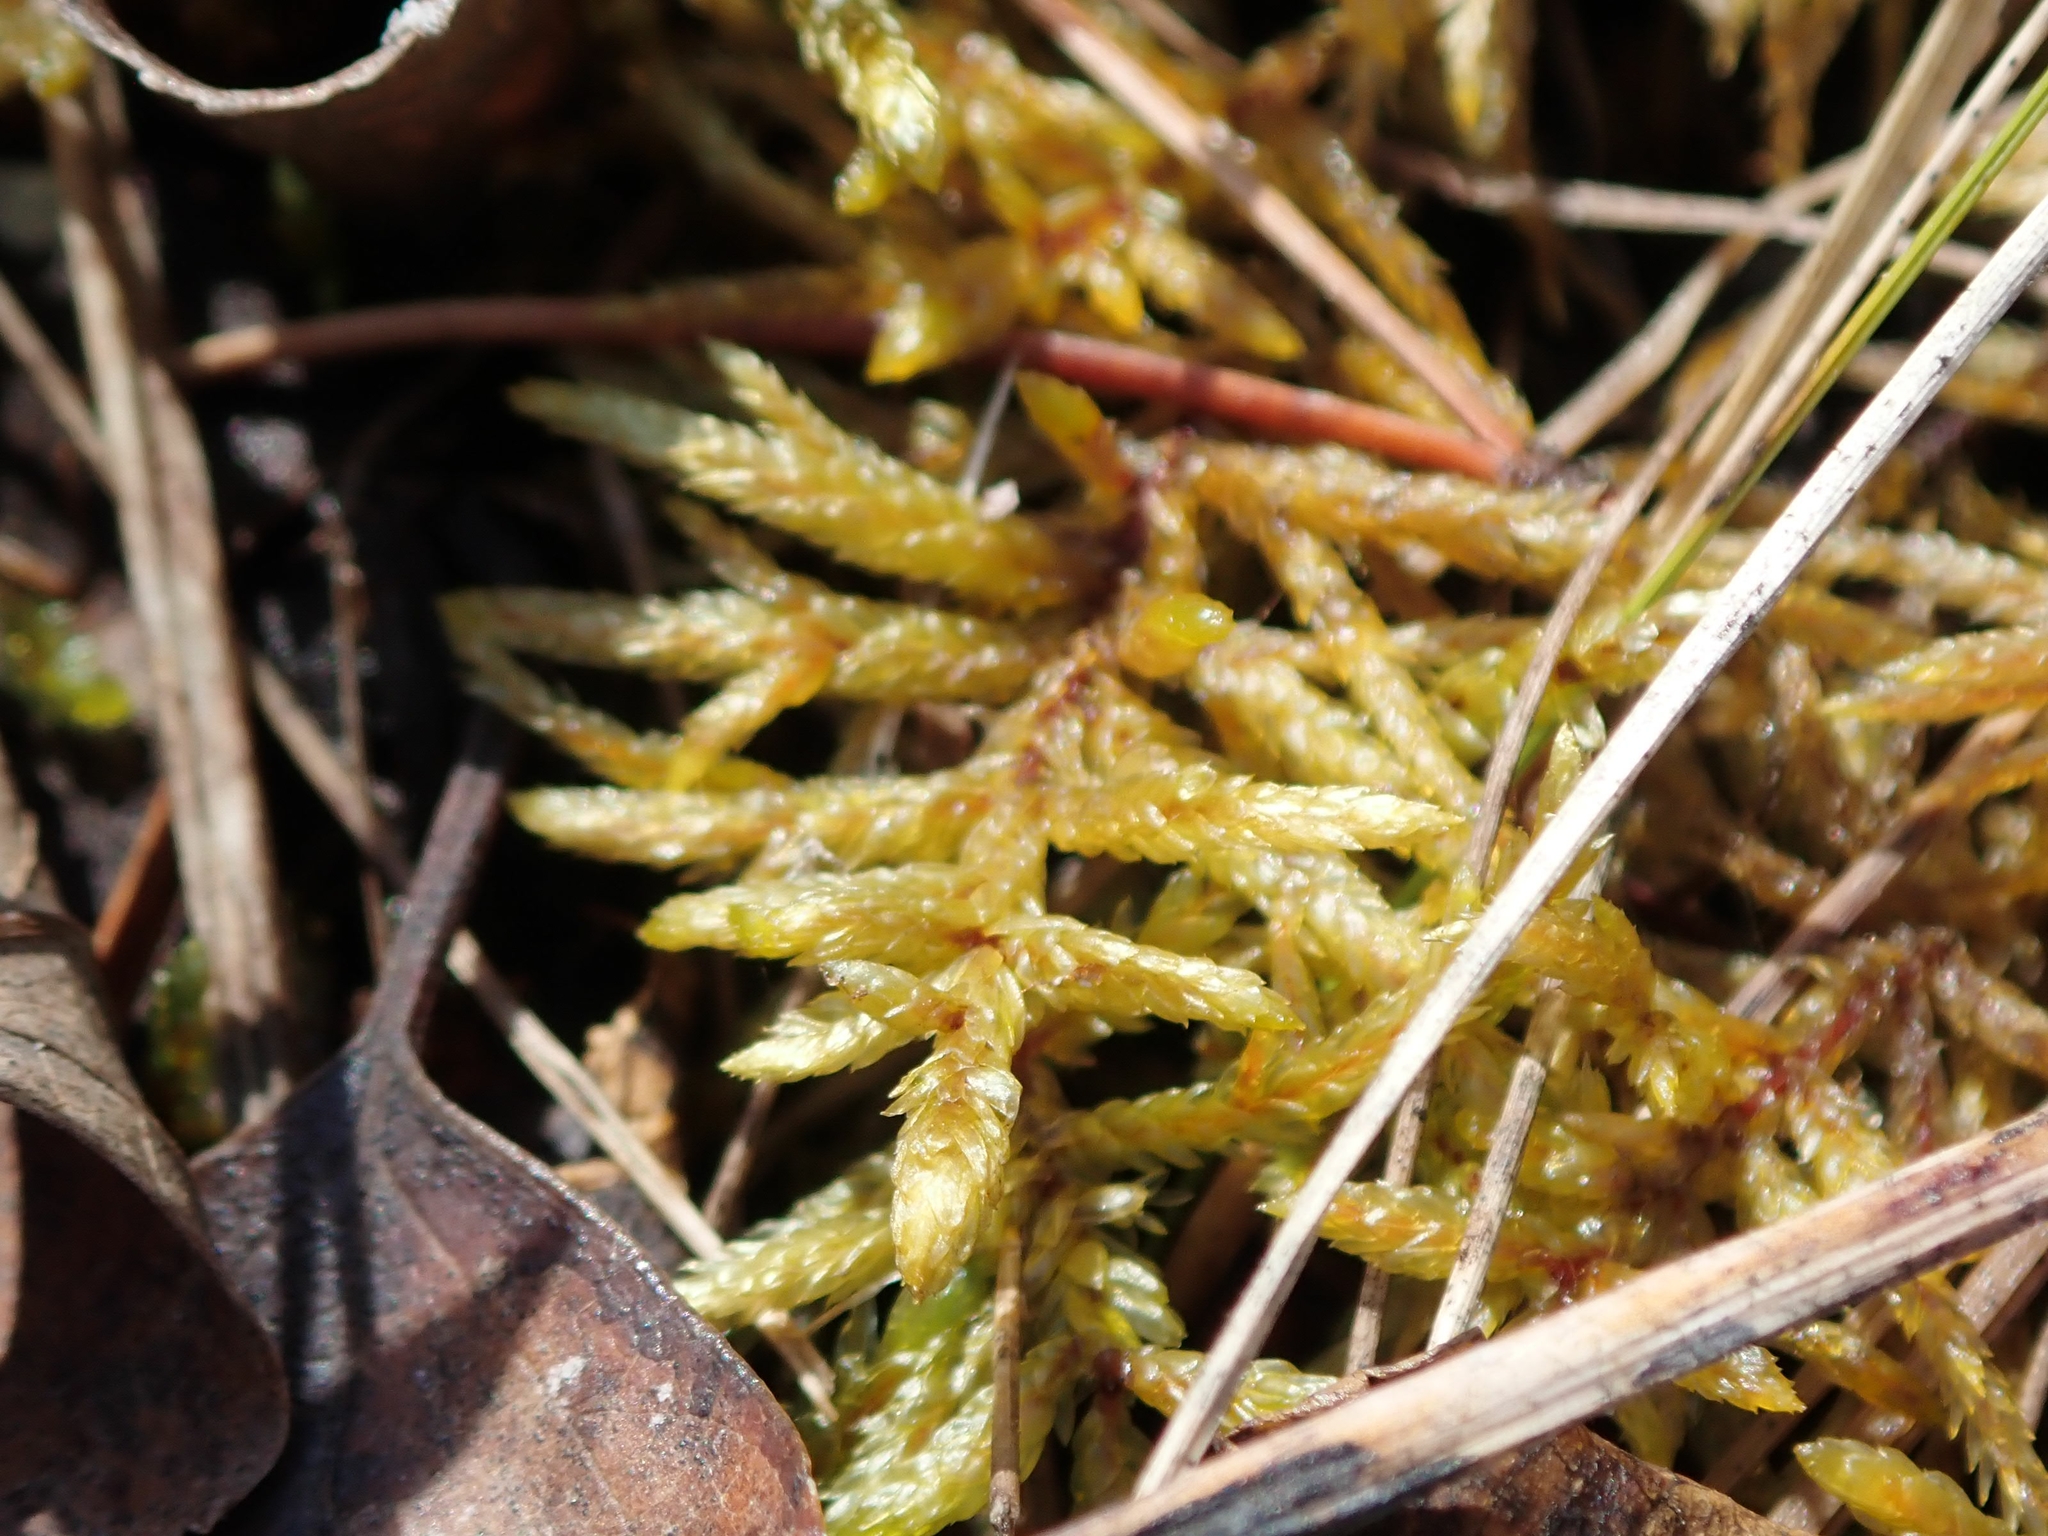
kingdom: Plantae
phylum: Bryophyta
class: Bryopsida
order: Hypnales
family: Hylocomiaceae
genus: Pleurozium
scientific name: Pleurozium schreberi
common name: Red-stemmed feather moss
